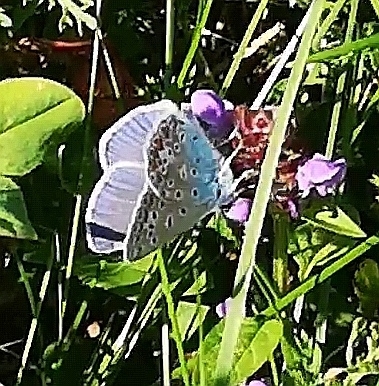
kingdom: Animalia
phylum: Arthropoda
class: Insecta
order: Lepidoptera
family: Lycaenidae
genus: Polyommatus
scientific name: Polyommatus icarus
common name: Common blue
